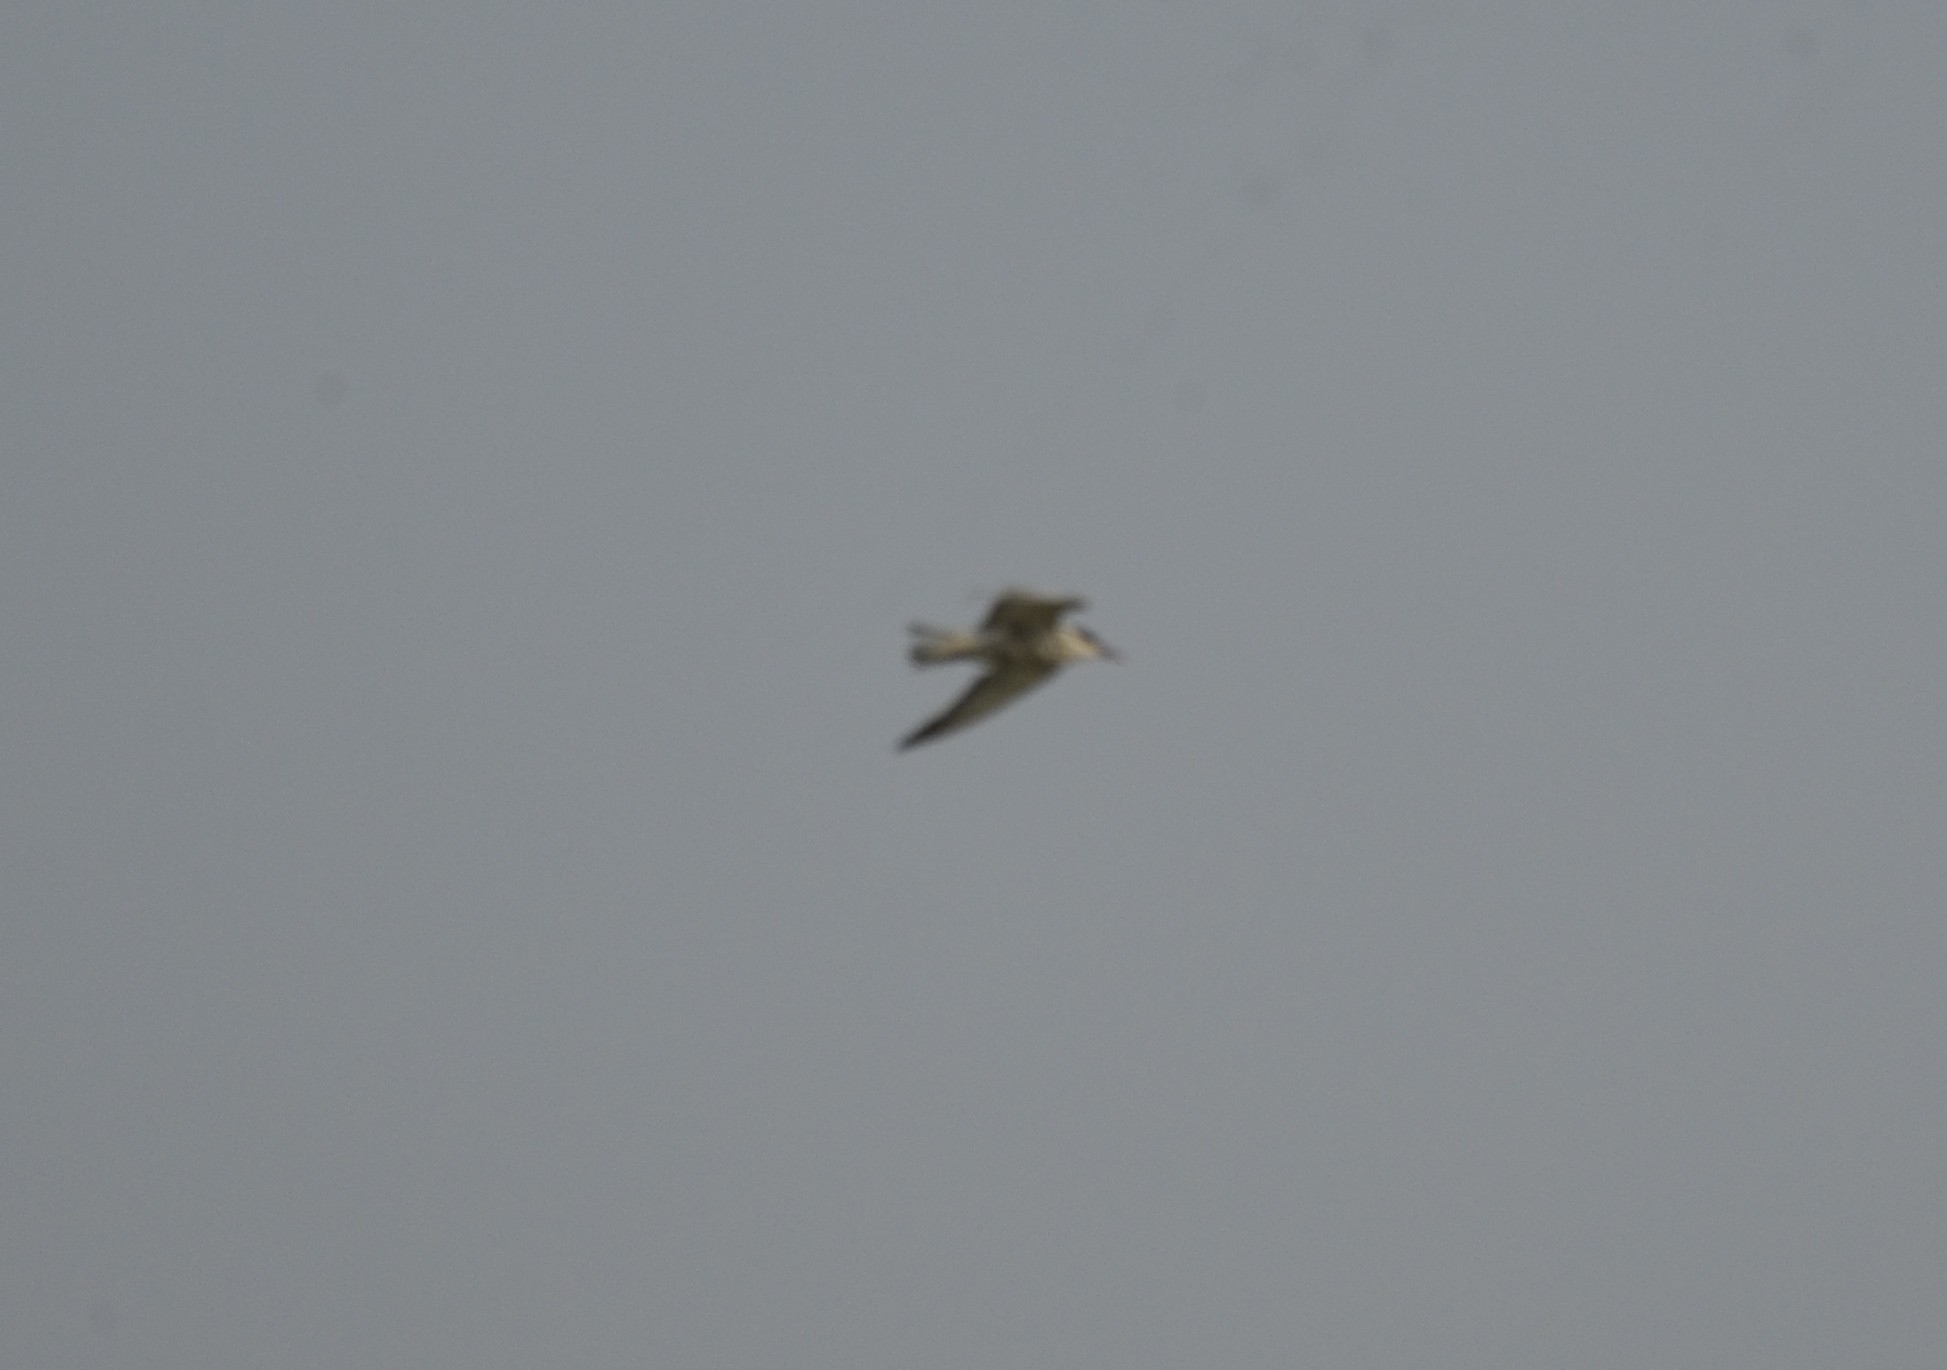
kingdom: Animalia
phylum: Chordata
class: Aves
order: Charadriiformes
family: Laridae
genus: Chlidonias
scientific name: Chlidonias hybrida
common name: Whiskered tern
